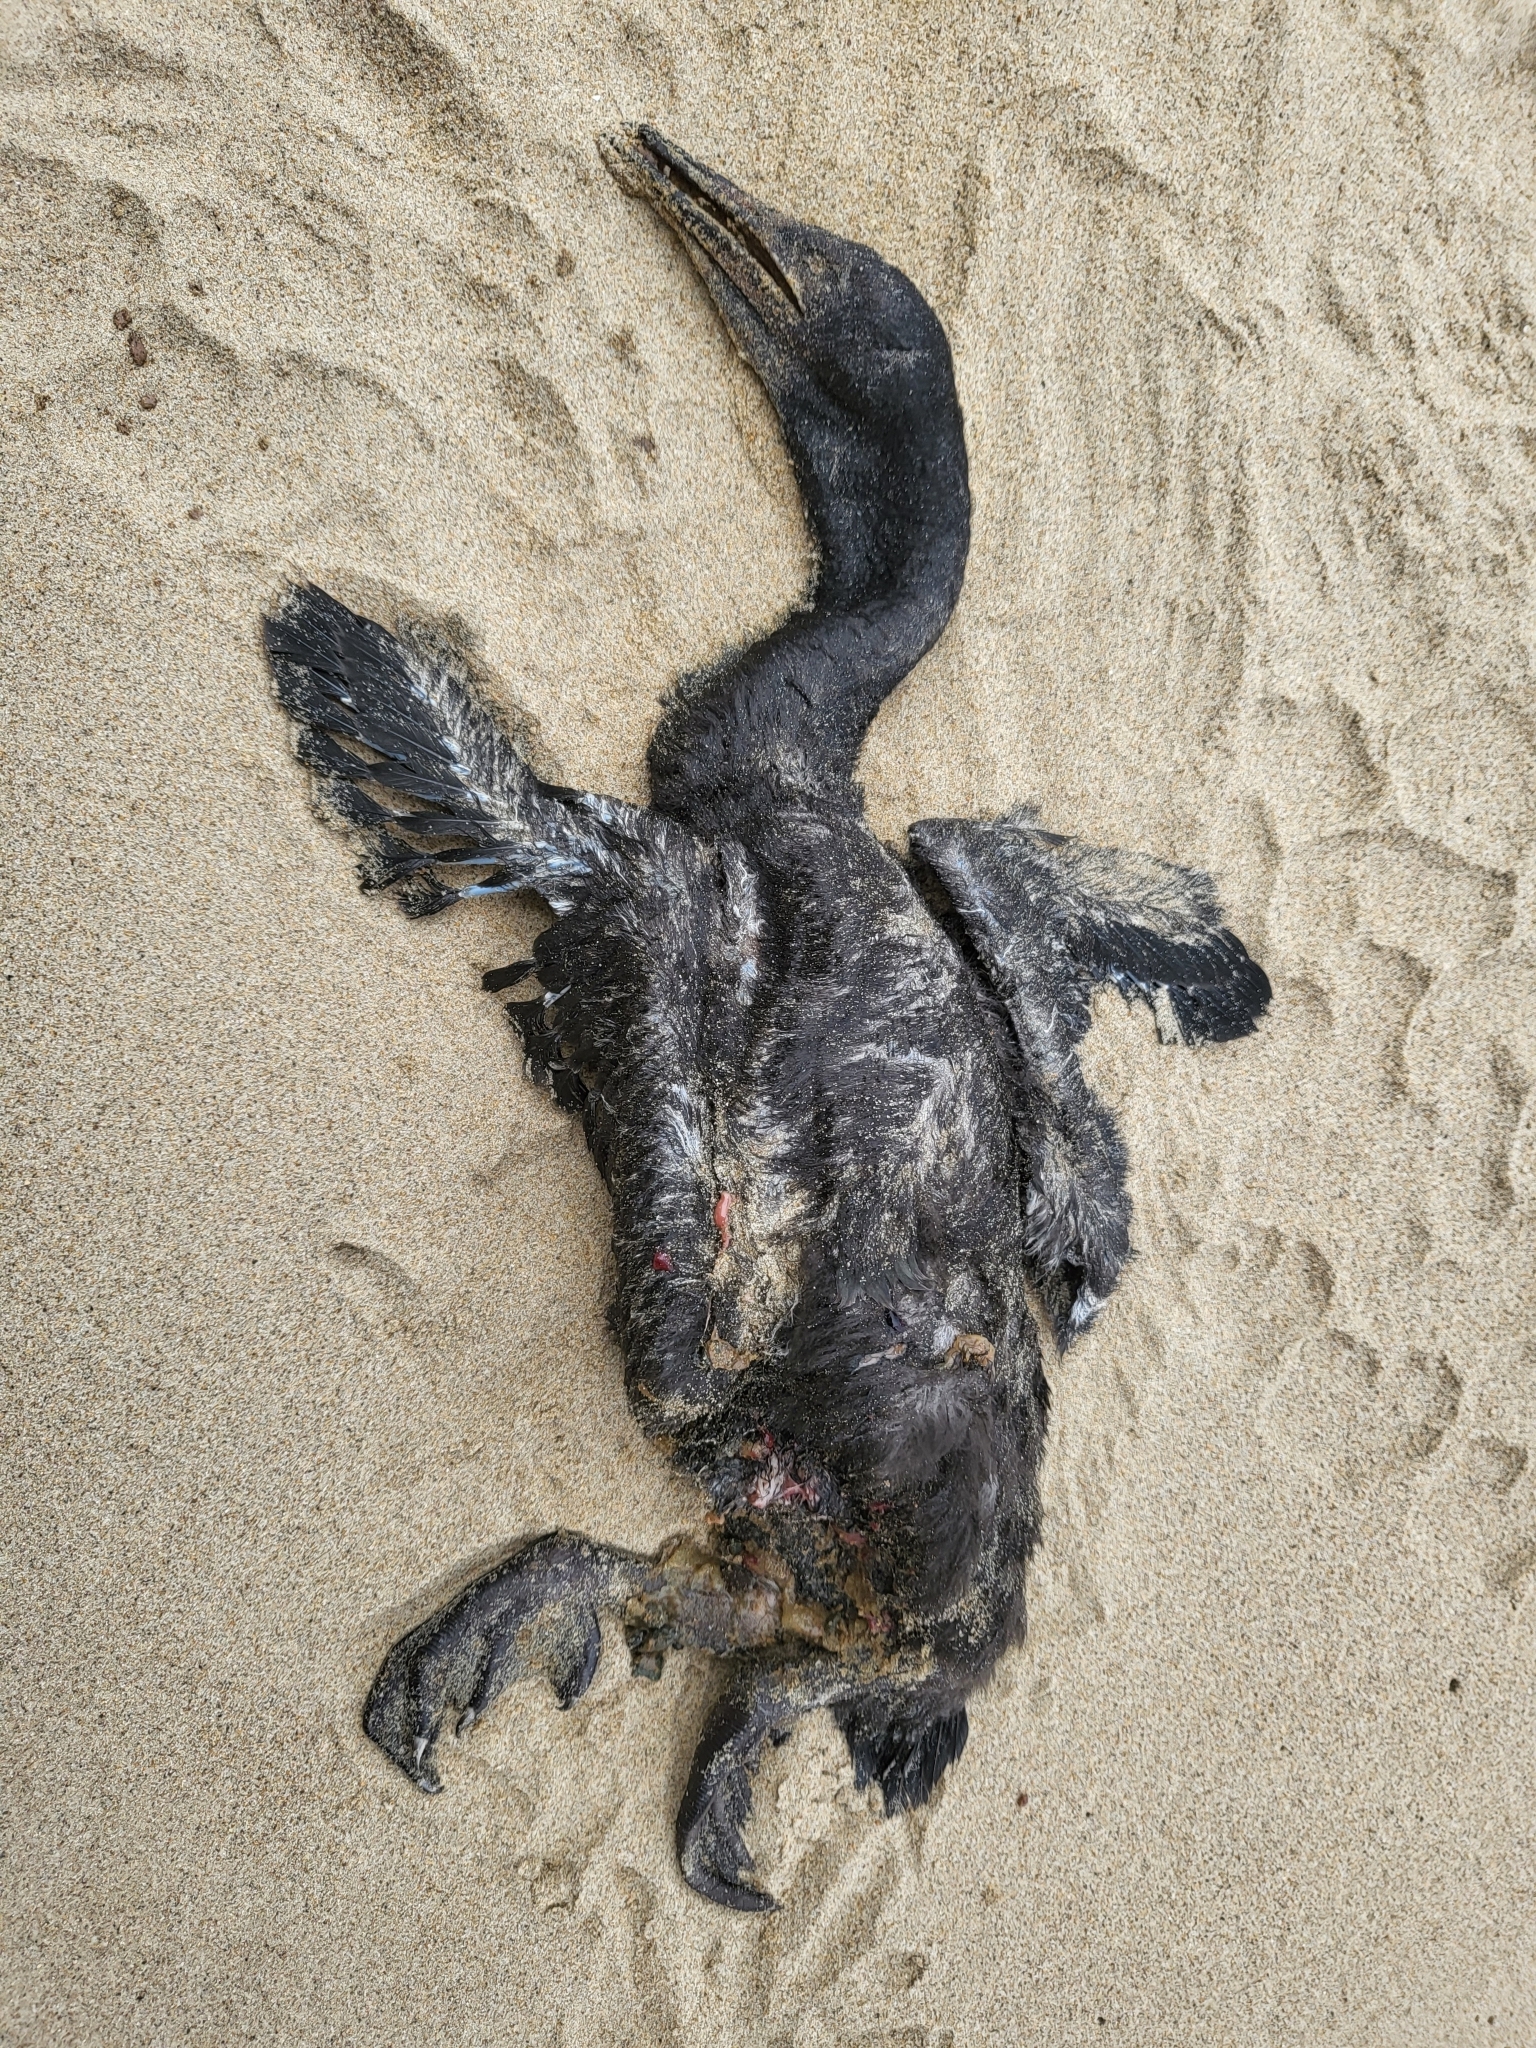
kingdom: Animalia
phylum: Chordata
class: Aves
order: Suliformes
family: Phalacrocoracidae
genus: Urile
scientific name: Urile penicillatus
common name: Brandt's cormorant
